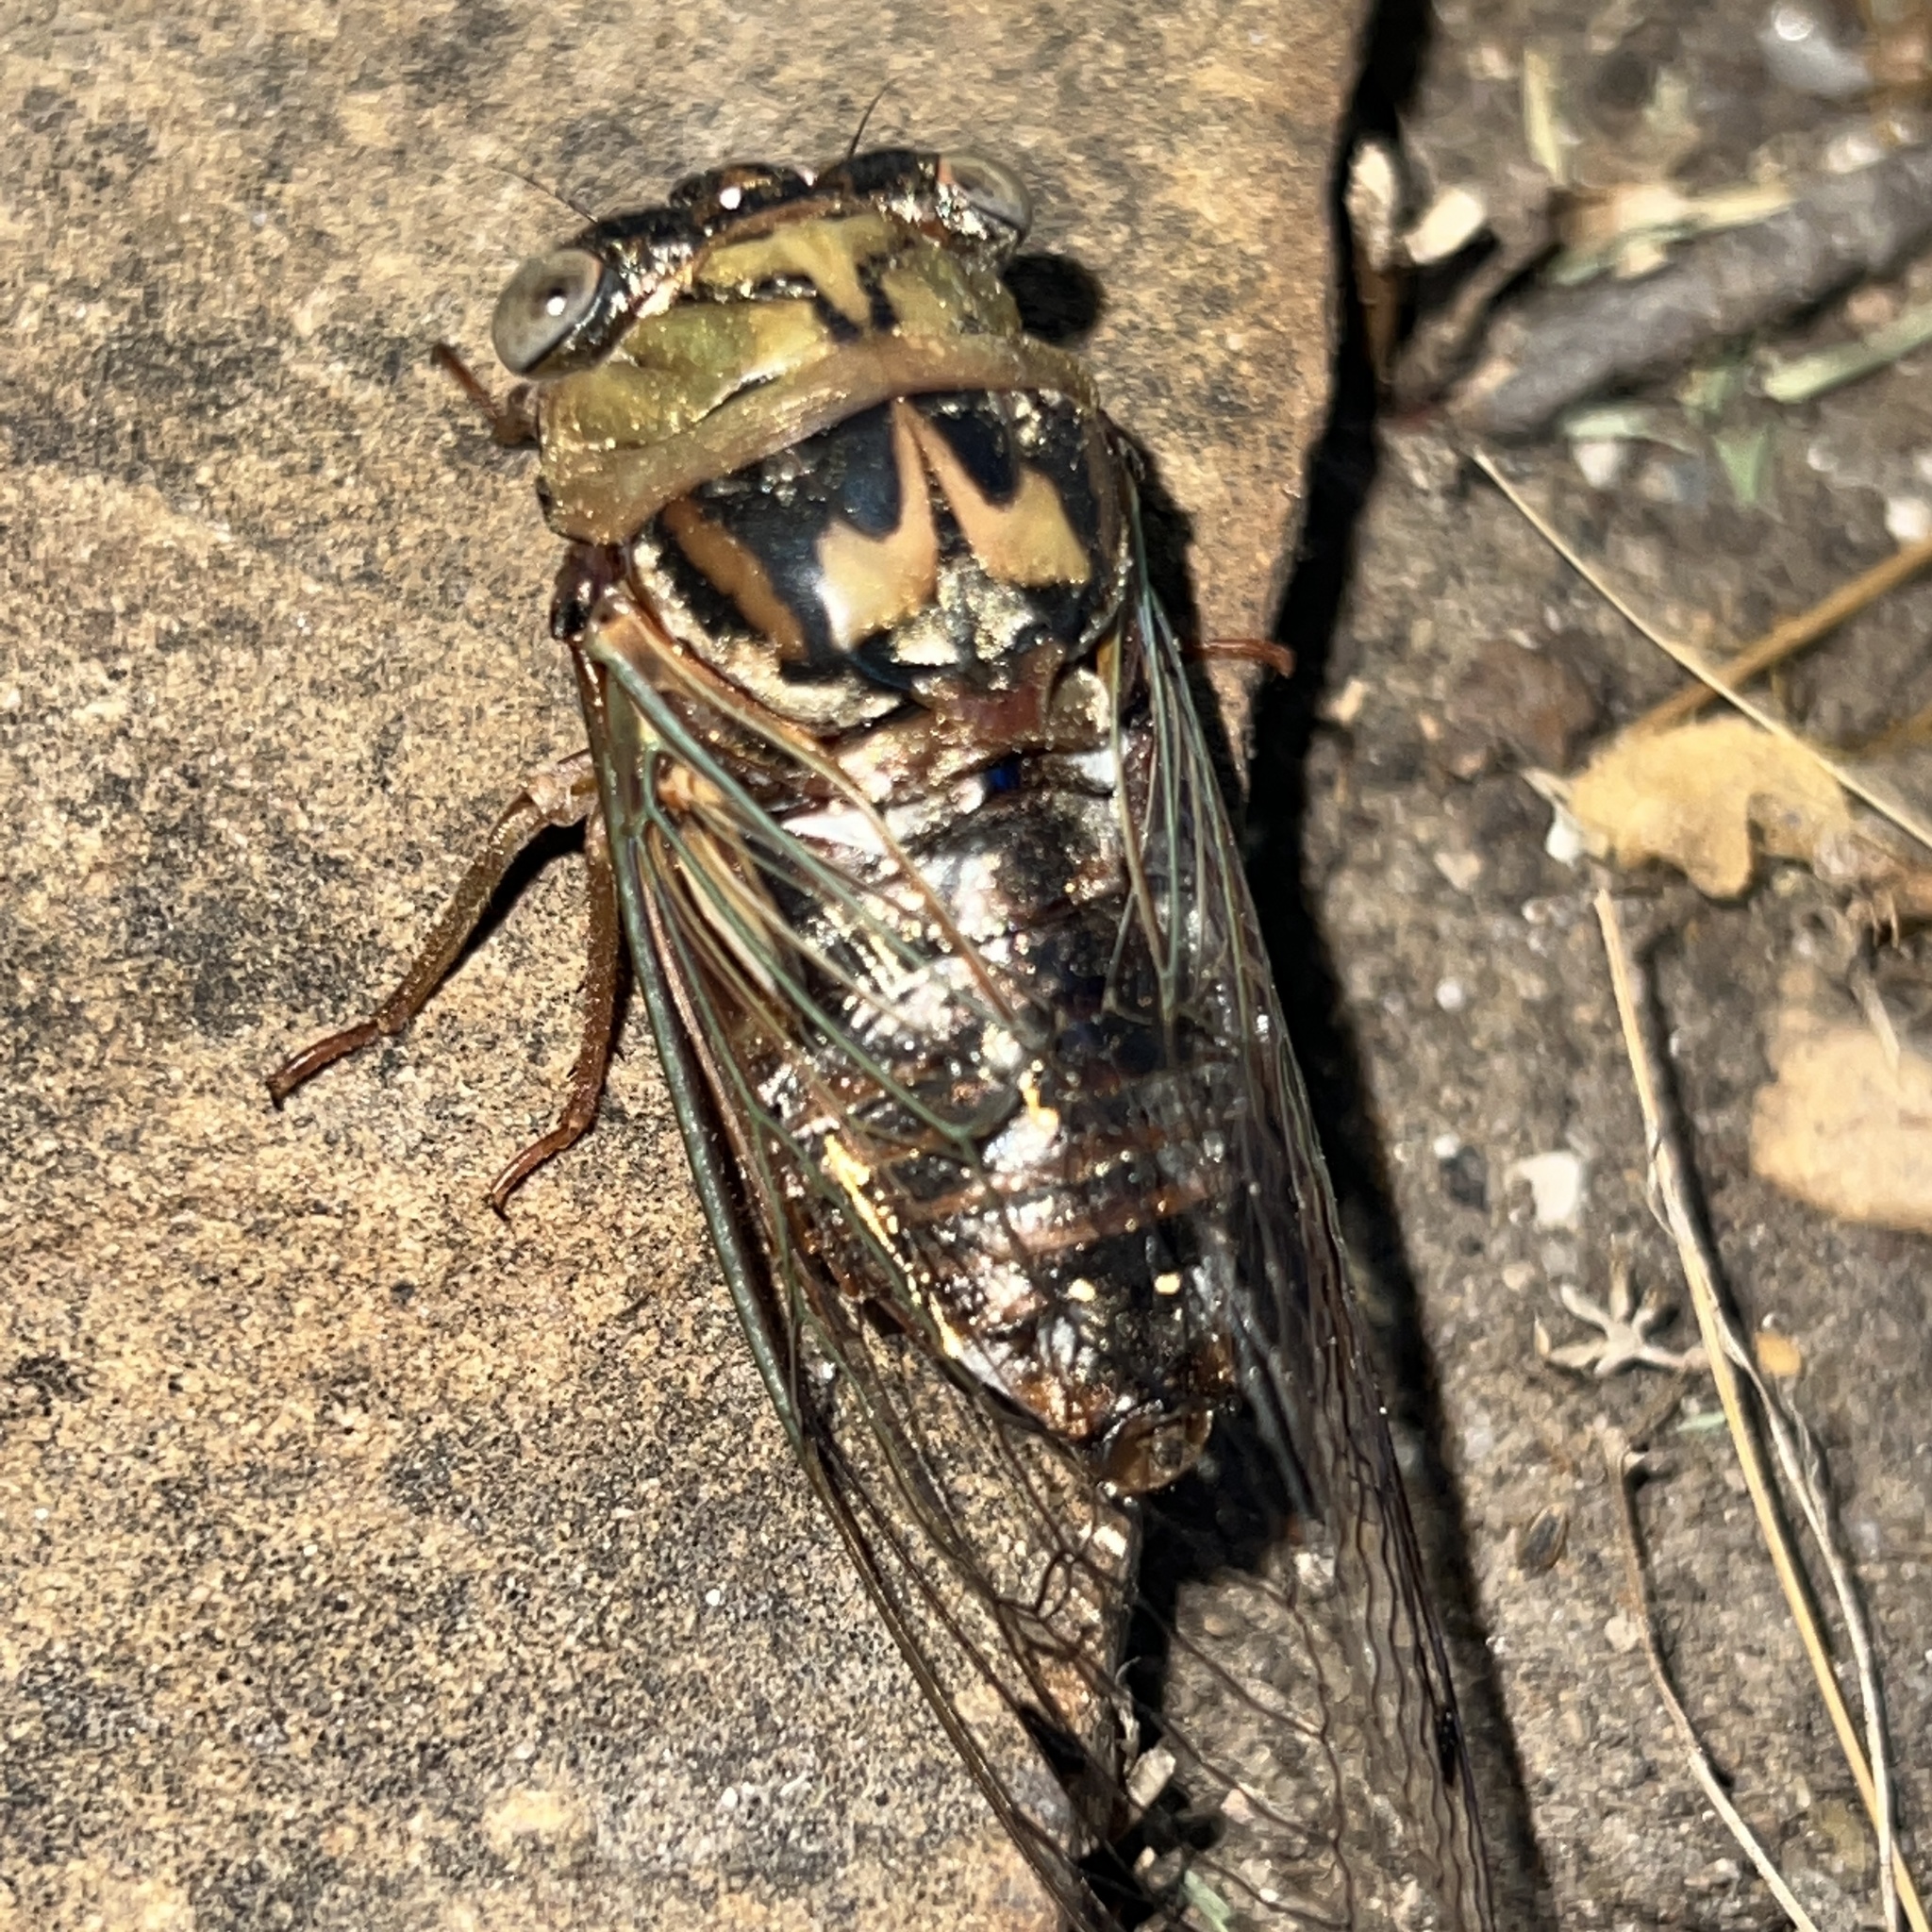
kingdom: Animalia
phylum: Arthropoda
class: Insecta
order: Hemiptera
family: Cicadidae
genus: Megatibicen
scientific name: Megatibicen resh
